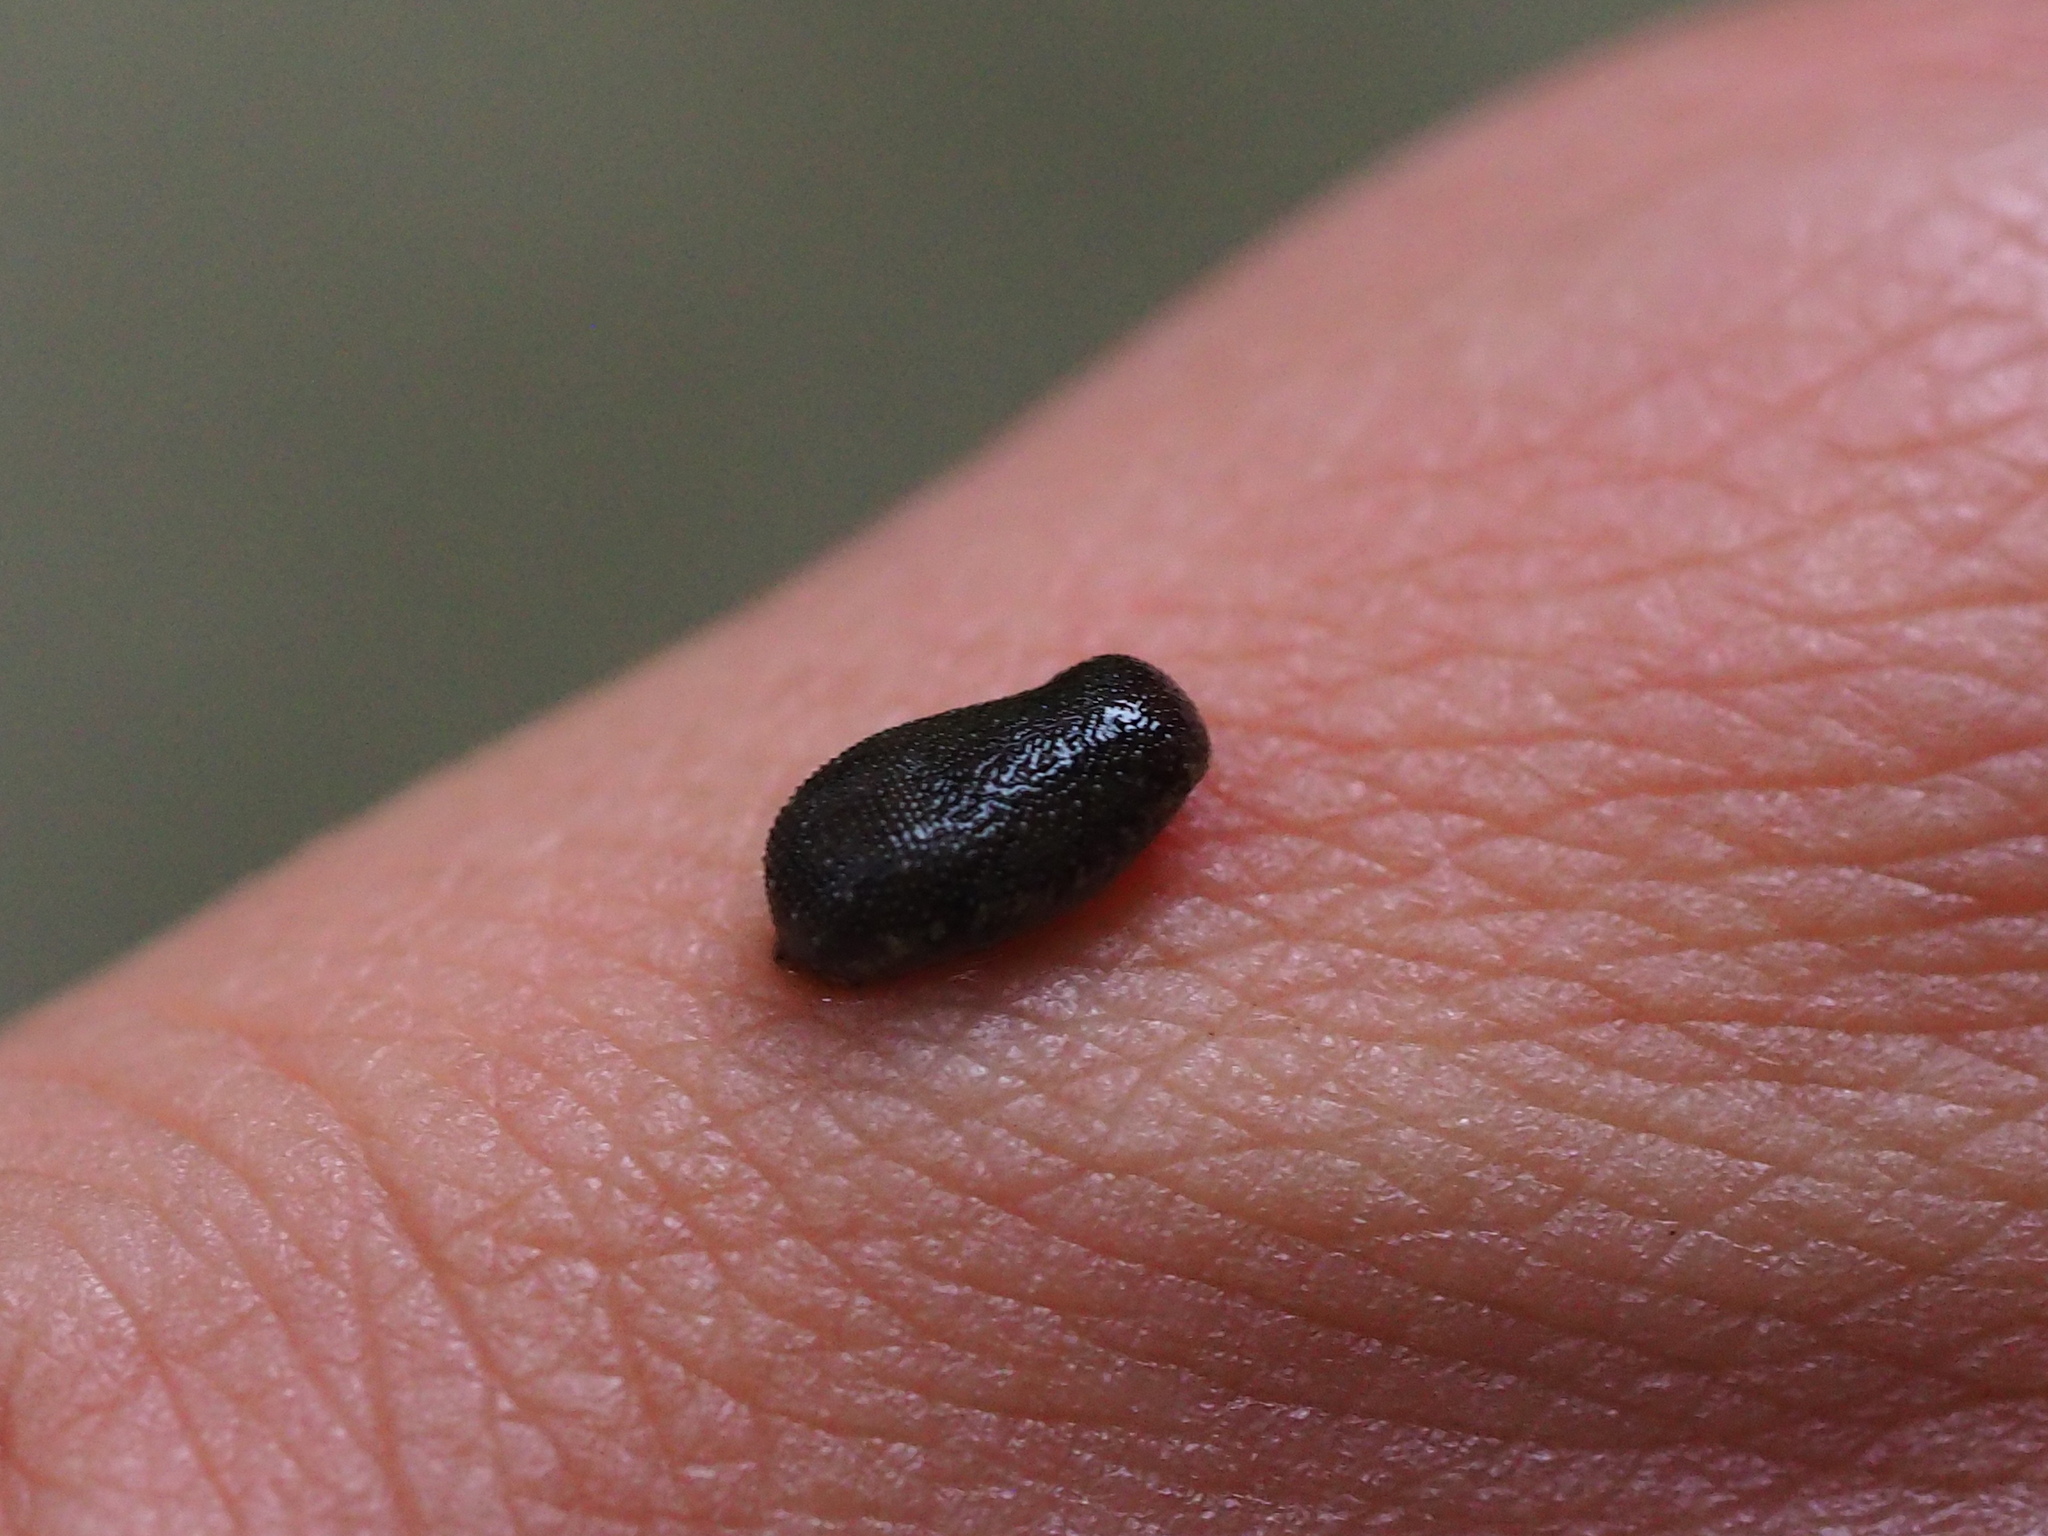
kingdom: Animalia
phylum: Annelida
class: Clitellata
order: Arhynchobdellida
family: Haemadipsidae
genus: Haemadipsa
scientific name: Haemadipsa rjukjuana
